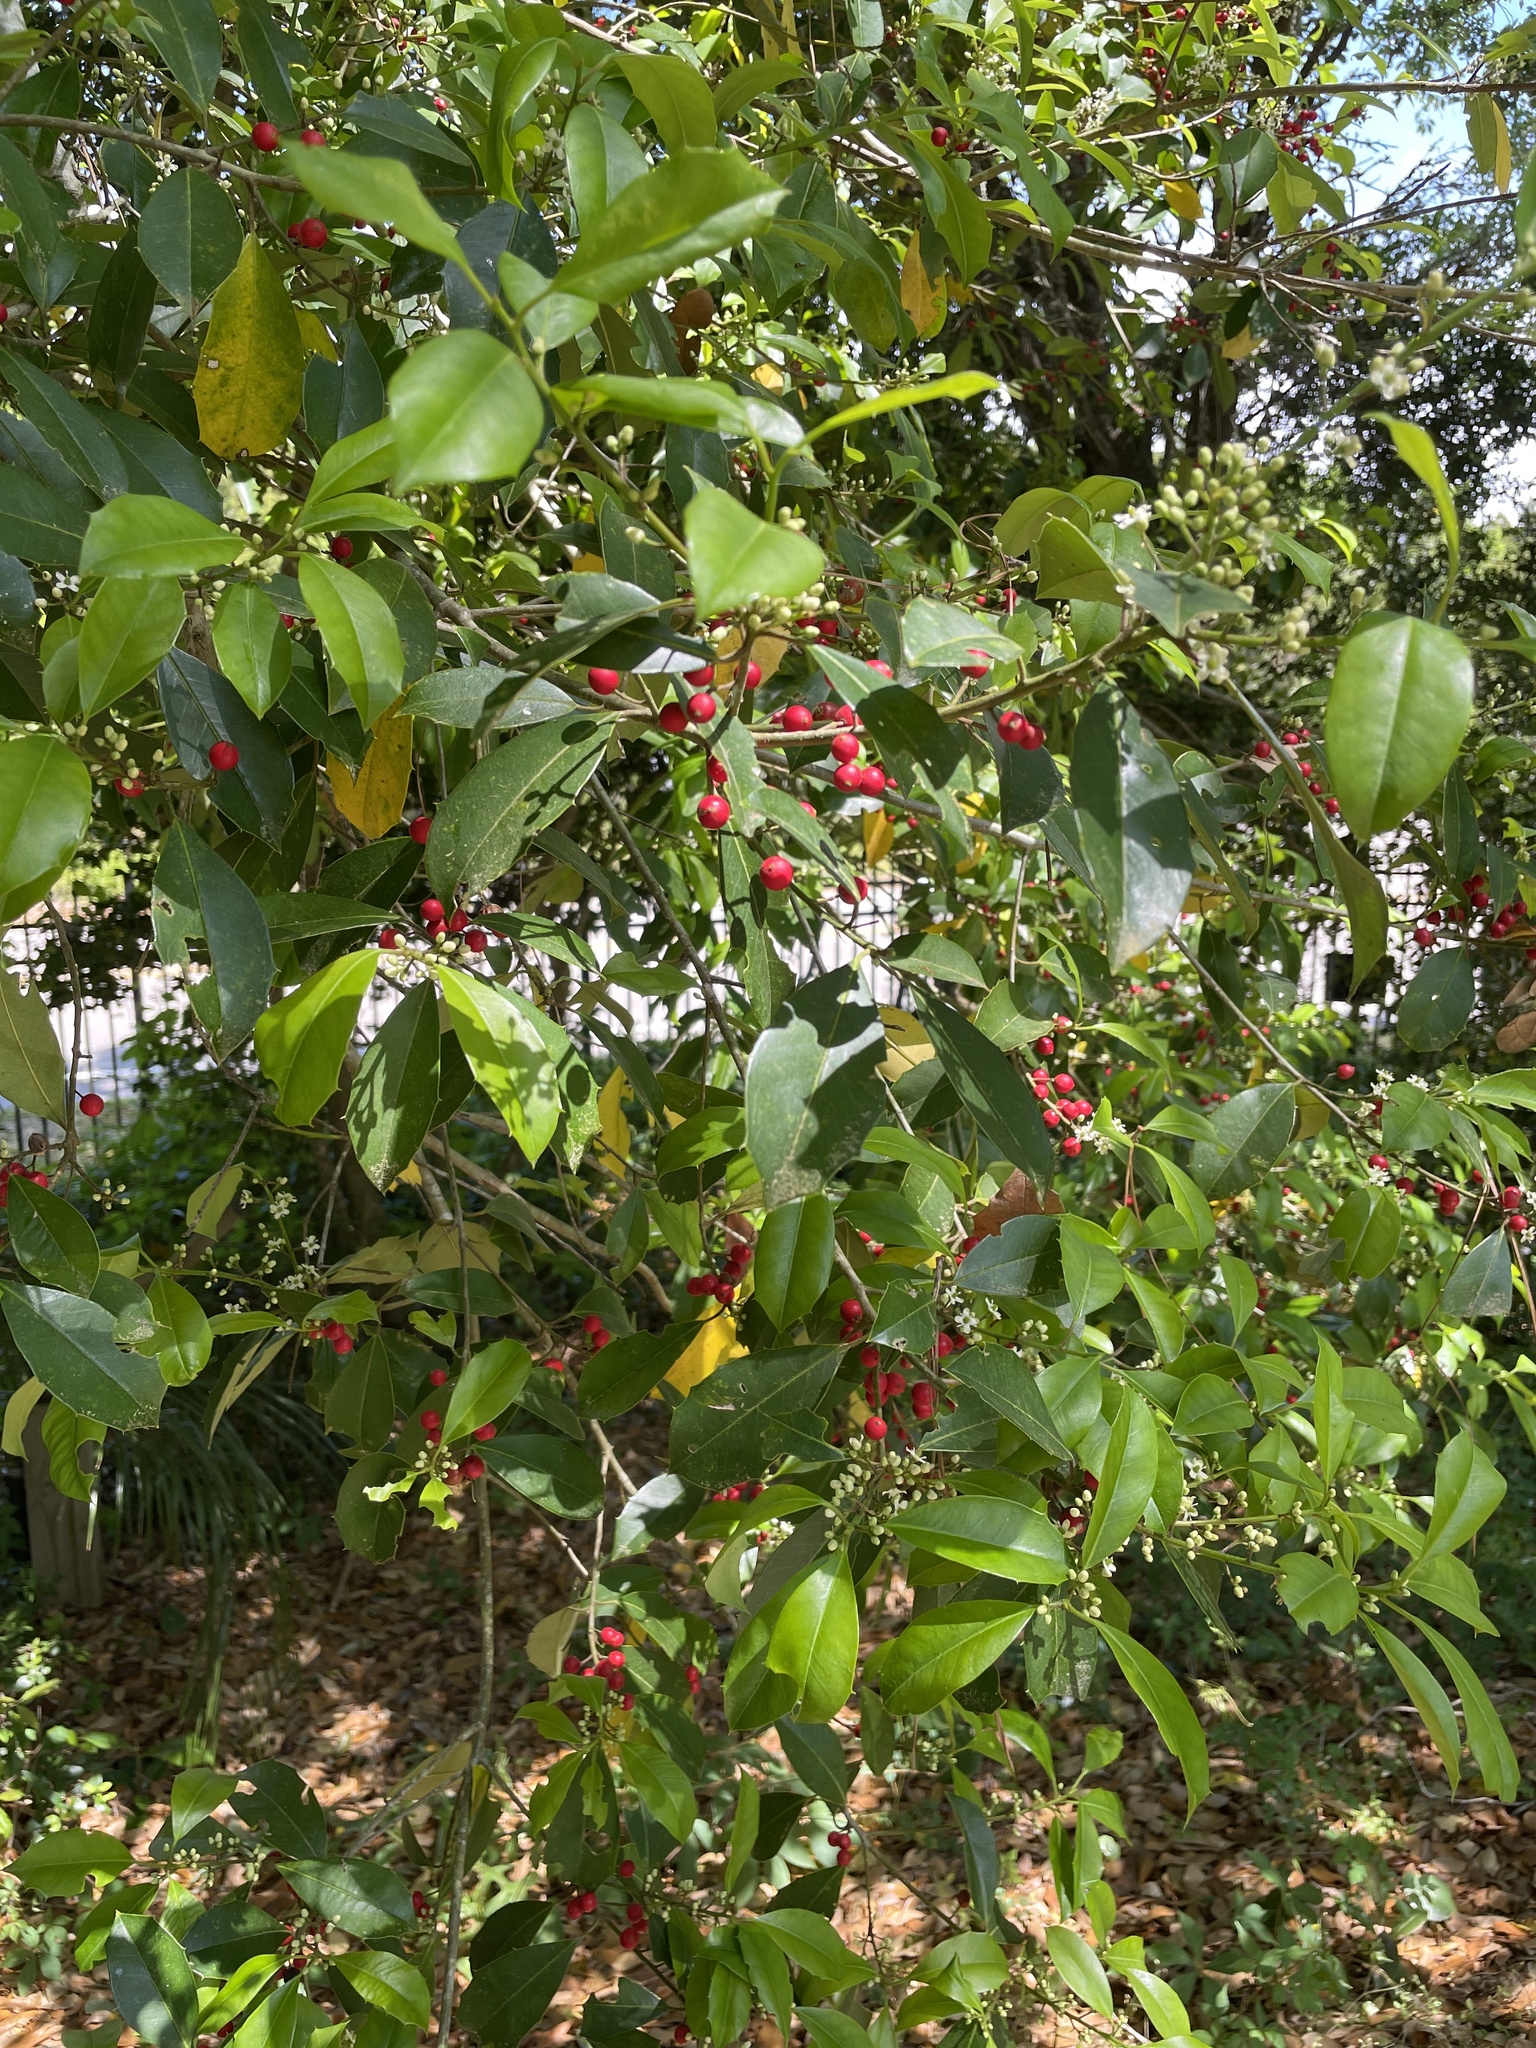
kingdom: Plantae
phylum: Tracheophyta
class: Magnoliopsida
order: Aquifoliales
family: Aquifoliaceae
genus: Ilex
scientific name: Ilex opaca
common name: American holly
